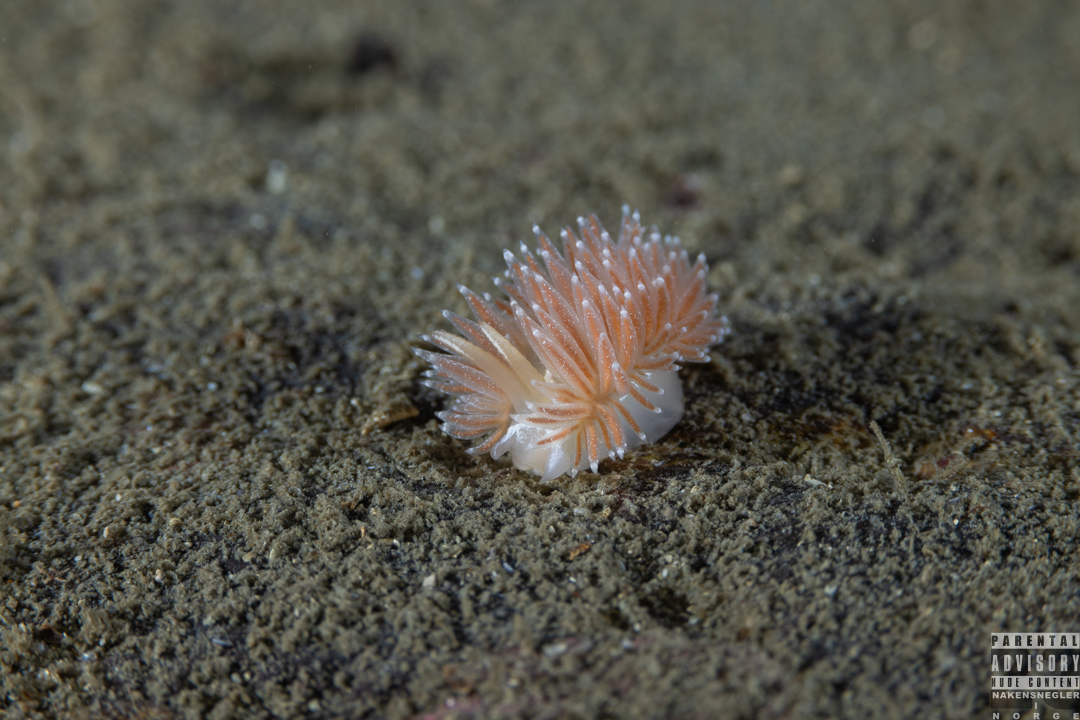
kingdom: Animalia
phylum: Mollusca
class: Gastropoda
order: Nudibranchia
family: Coryphellidae
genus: Coryphella
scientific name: Coryphella monicae
